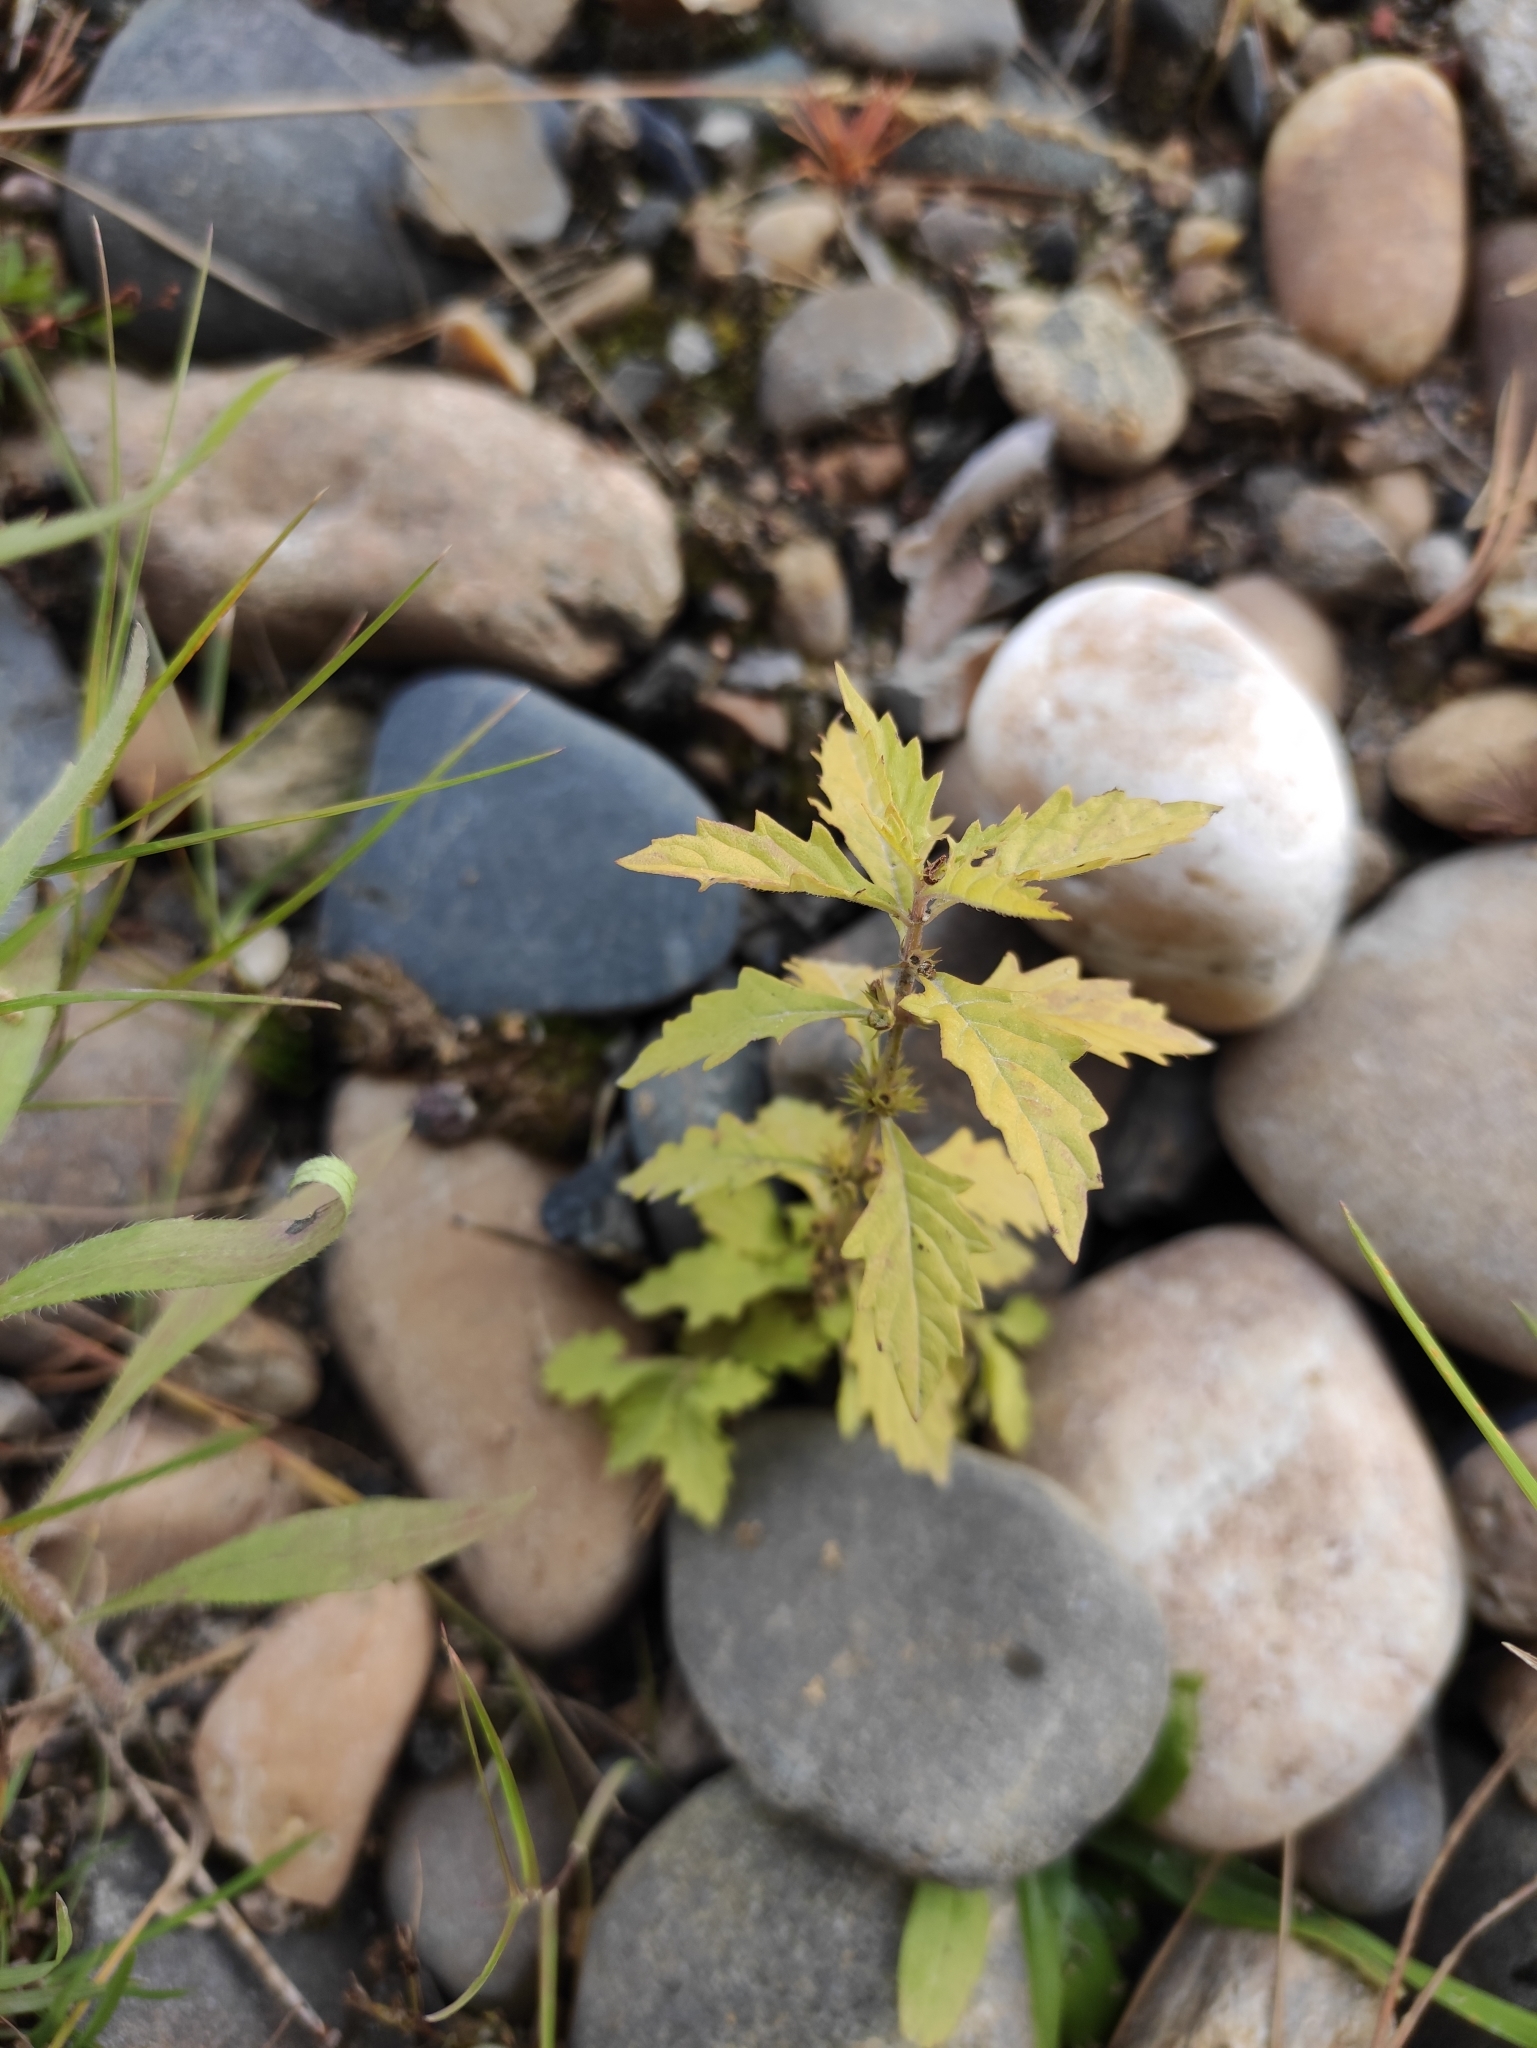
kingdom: Plantae
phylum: Tracheophyta
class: Magnoliopsida
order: Lamiales
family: Lamiaceae
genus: Lycopus
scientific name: Lycopus europaeus
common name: European bugleweed
